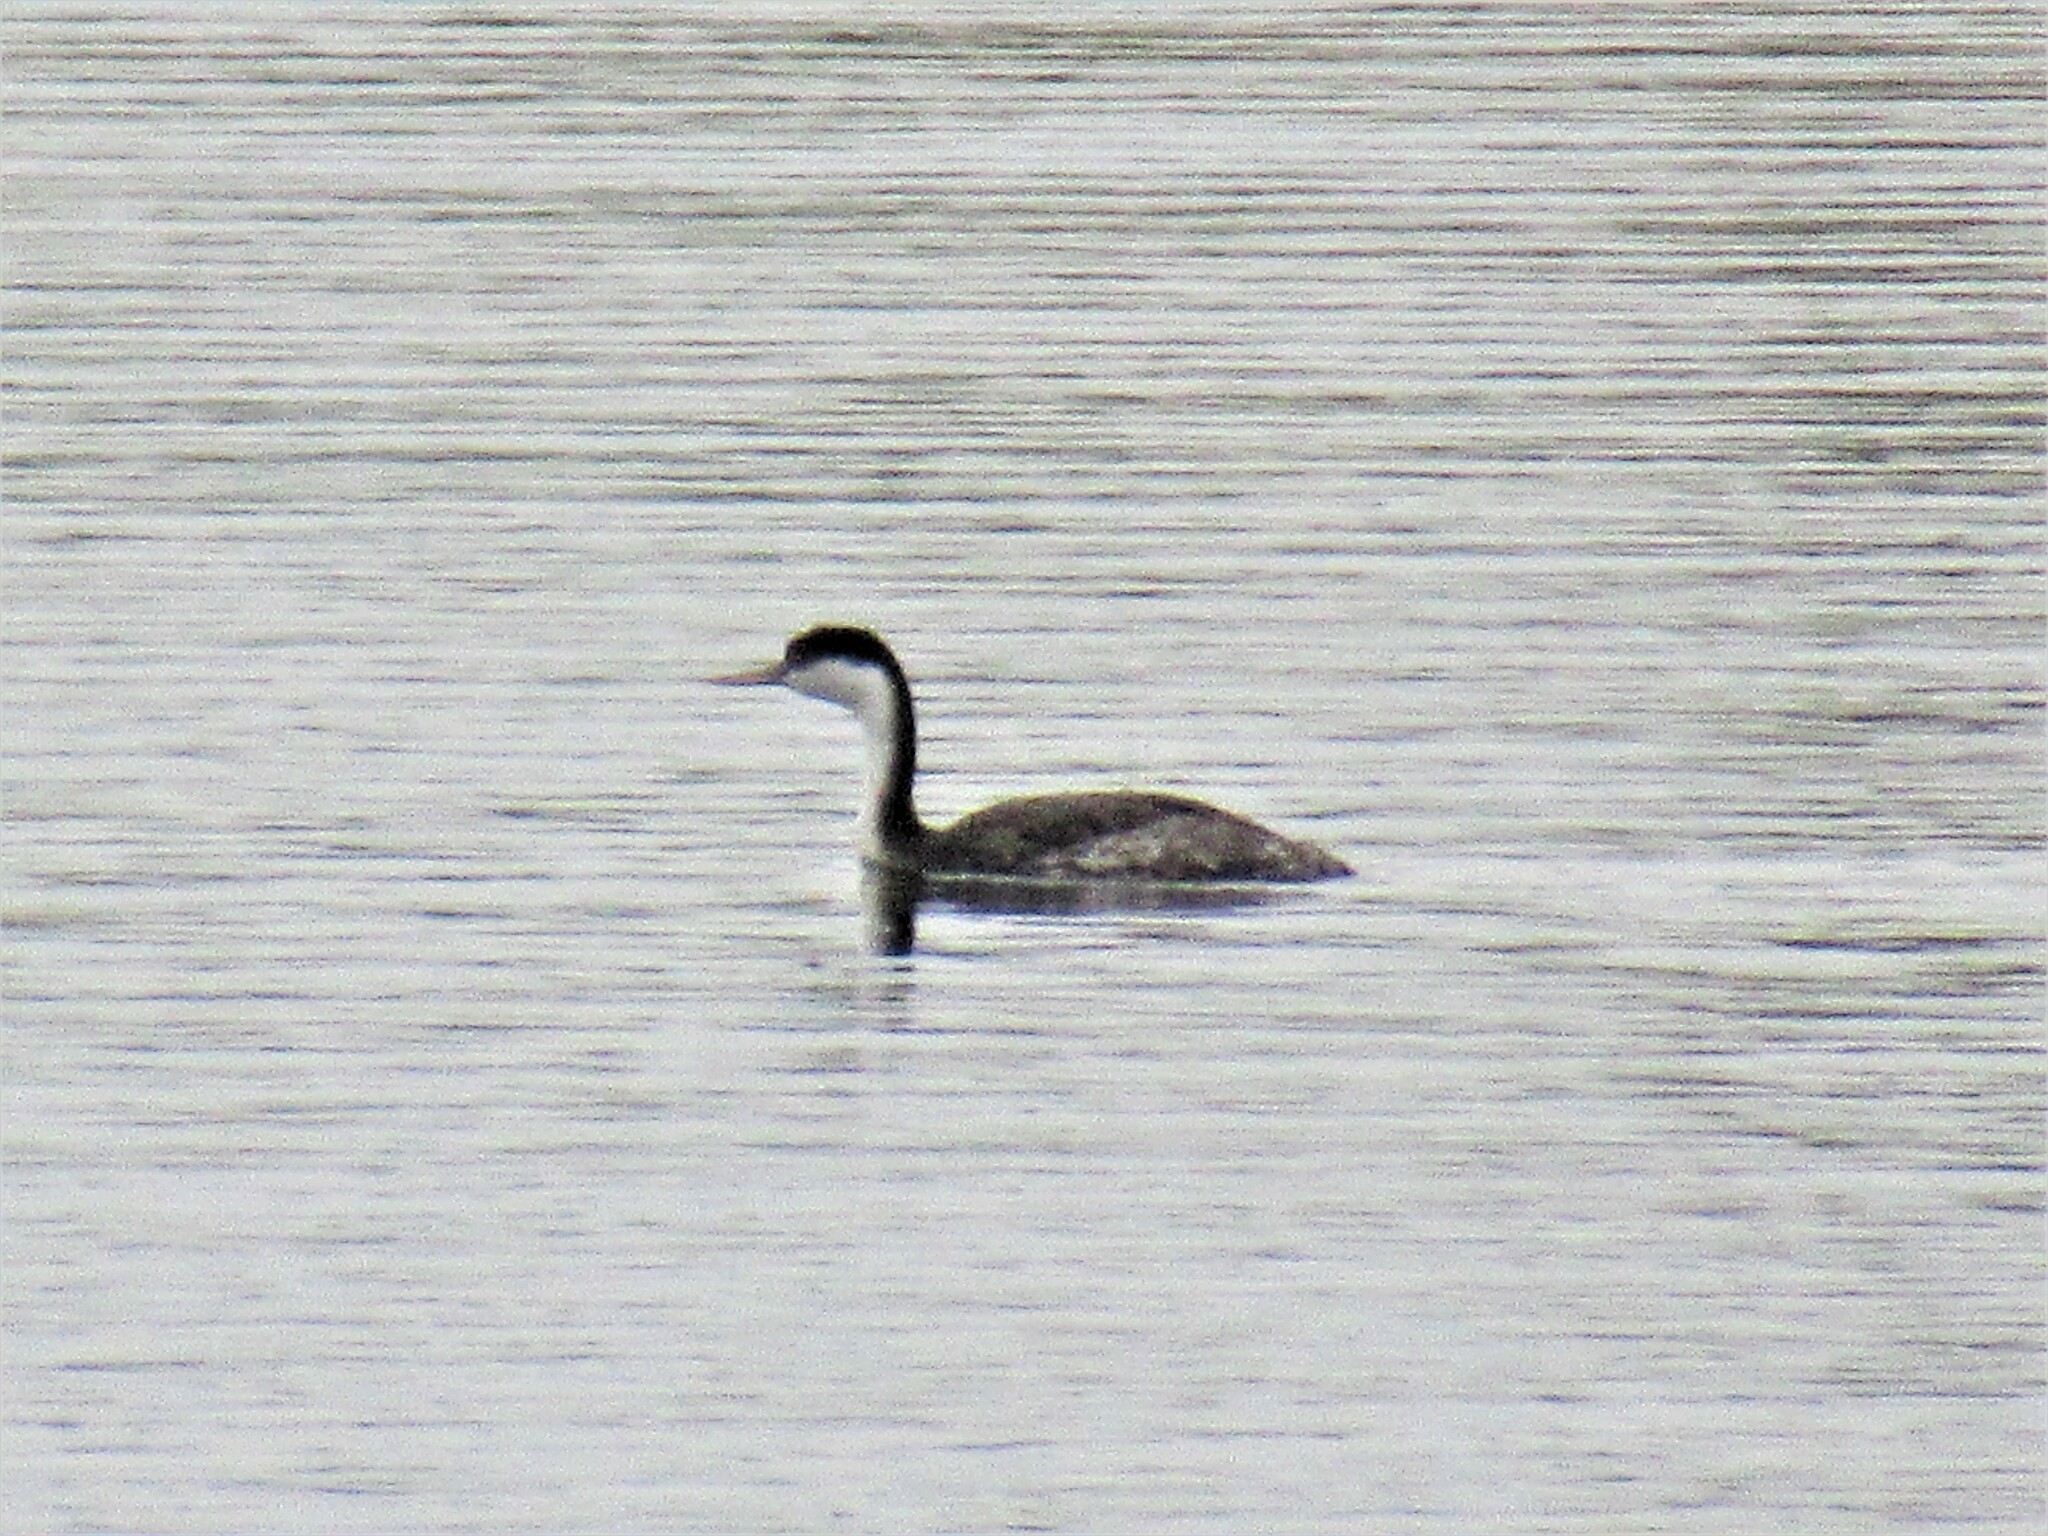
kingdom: Animalia
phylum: Chordata
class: Aves
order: Podicipediformes
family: Podicipedidae
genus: Aechmophorus
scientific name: Aechmophorus occidentalis
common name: Western grebe
